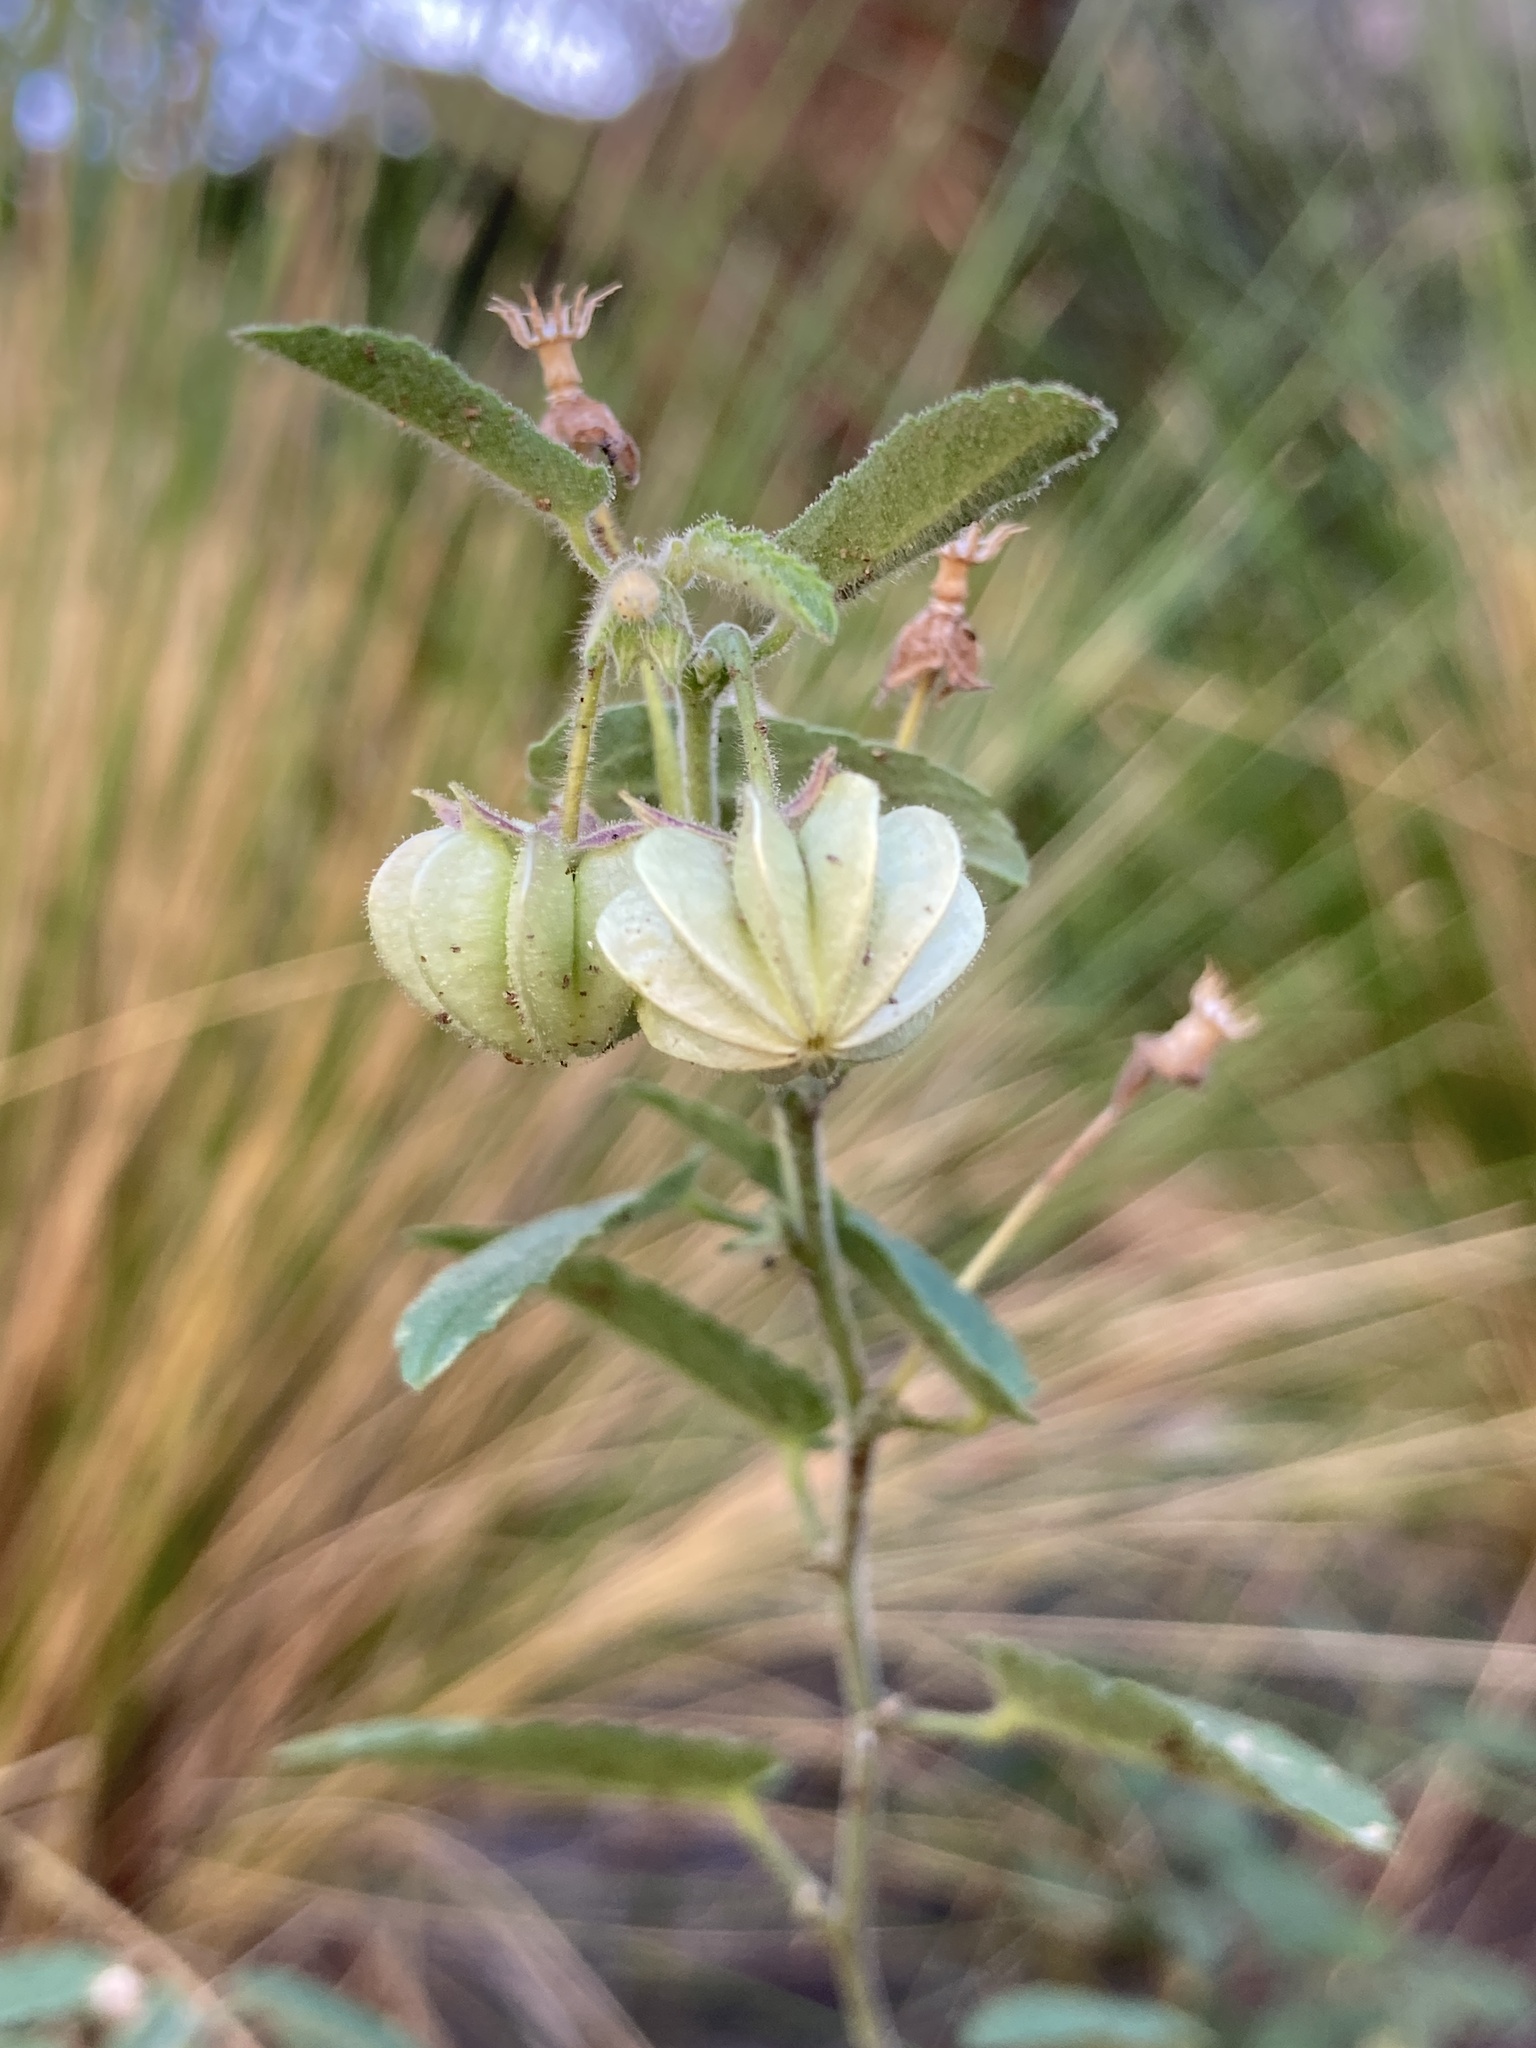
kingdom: Plantae
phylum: Tracheophyta
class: Magnoliopsida
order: Malvales
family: Malvaceae
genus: Gaya
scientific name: Gaya parviflora
